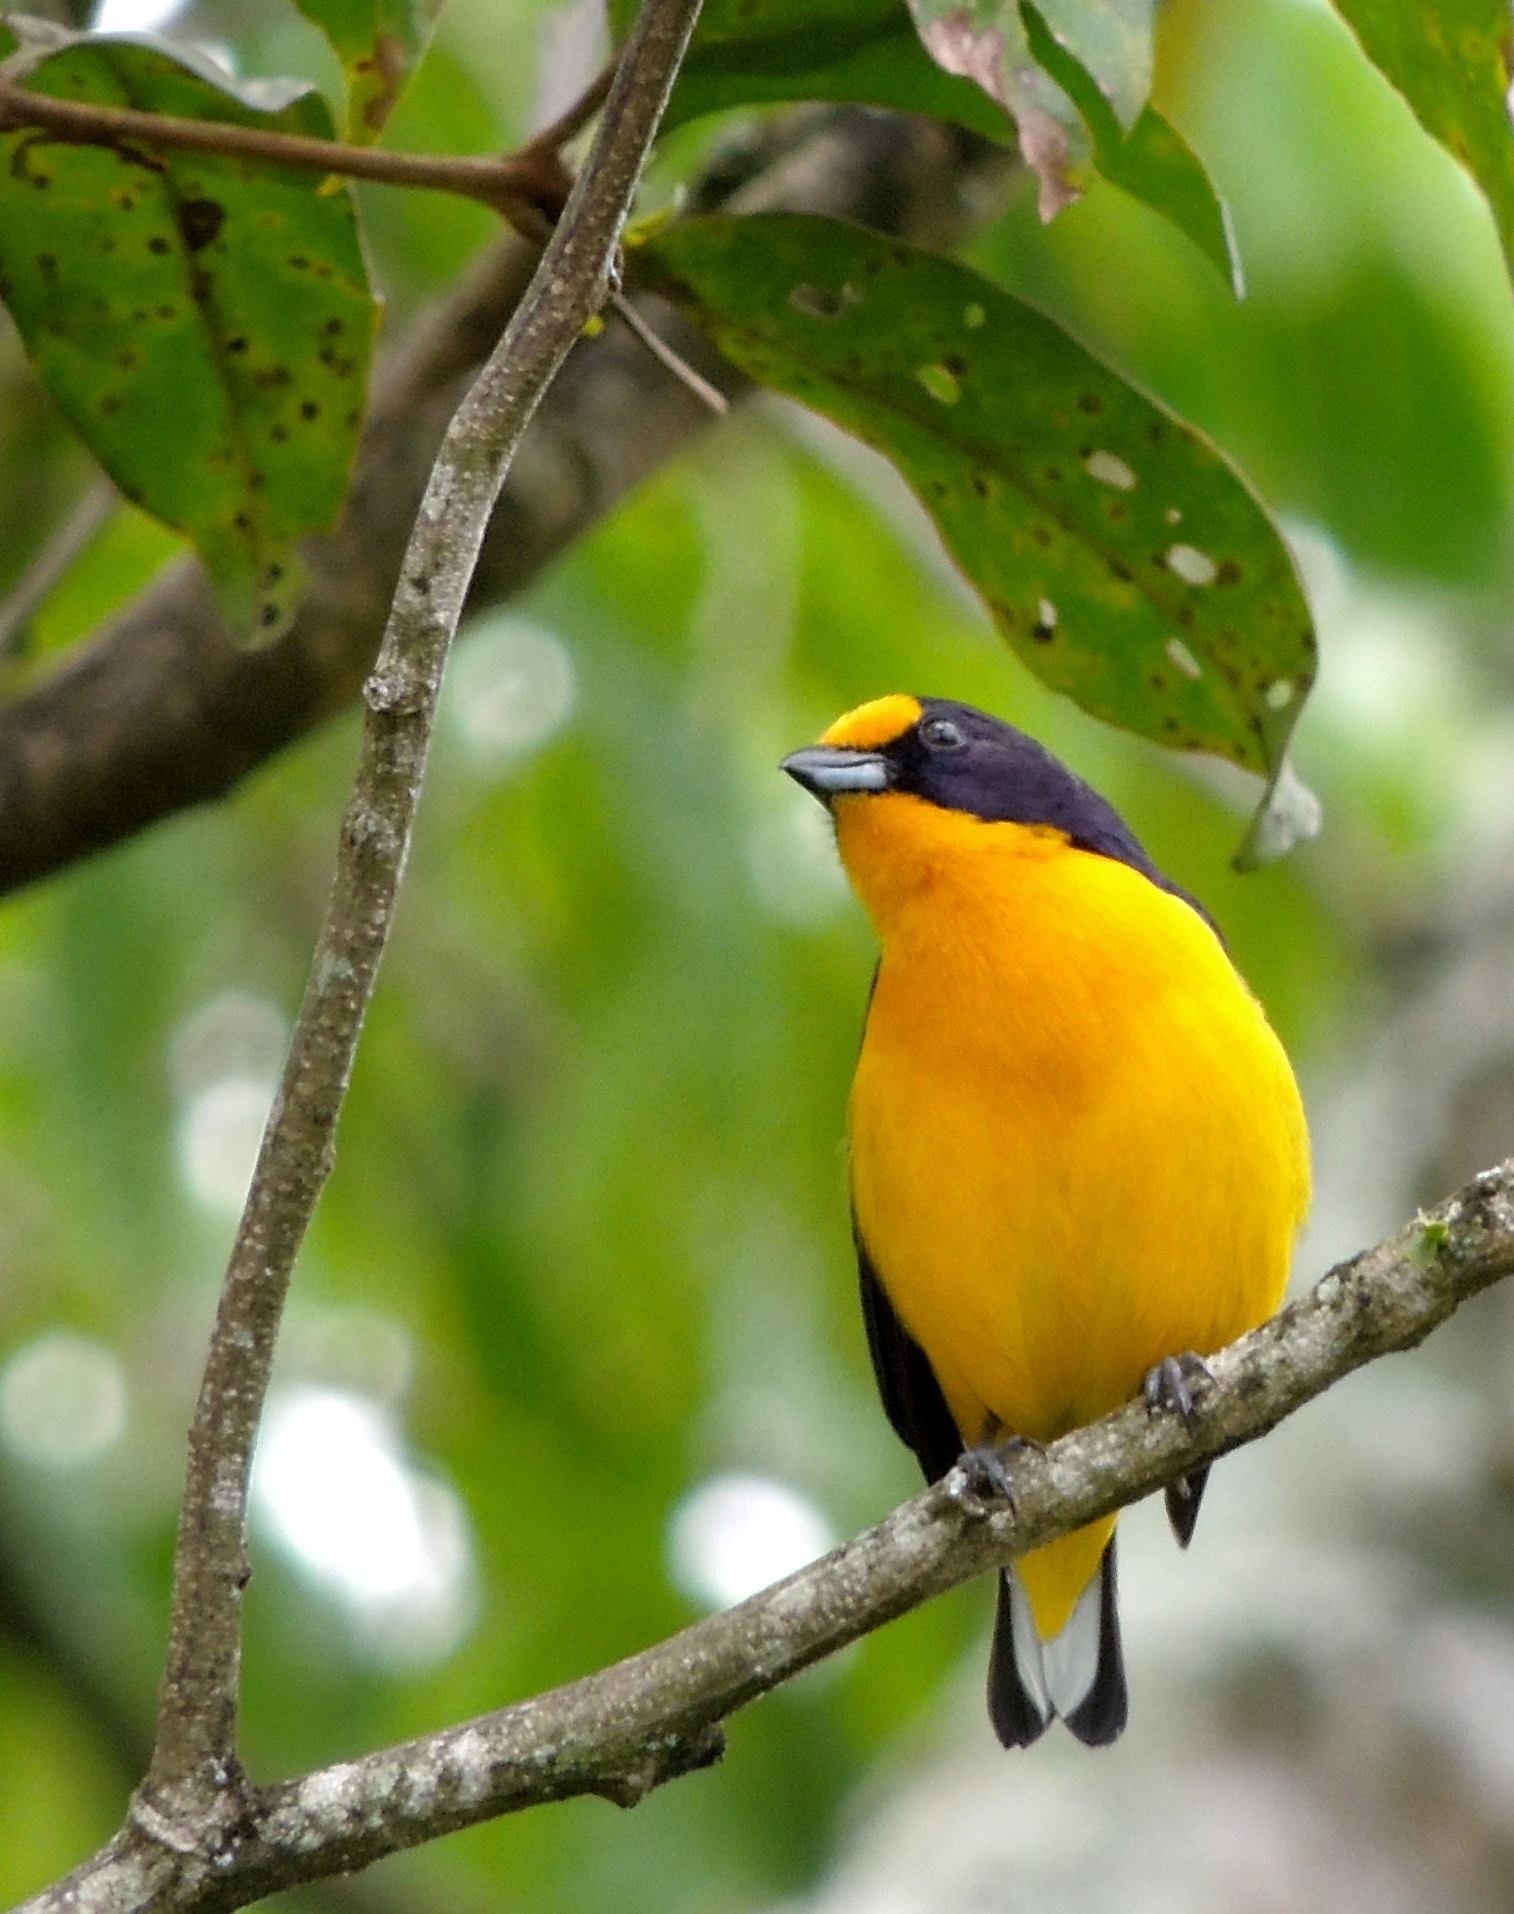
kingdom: Animalia
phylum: Chordata
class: Aves
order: Passeriformes
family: Fringillidae
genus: Euphonia
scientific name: Euphonia violacea
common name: Violaceous euphonia
